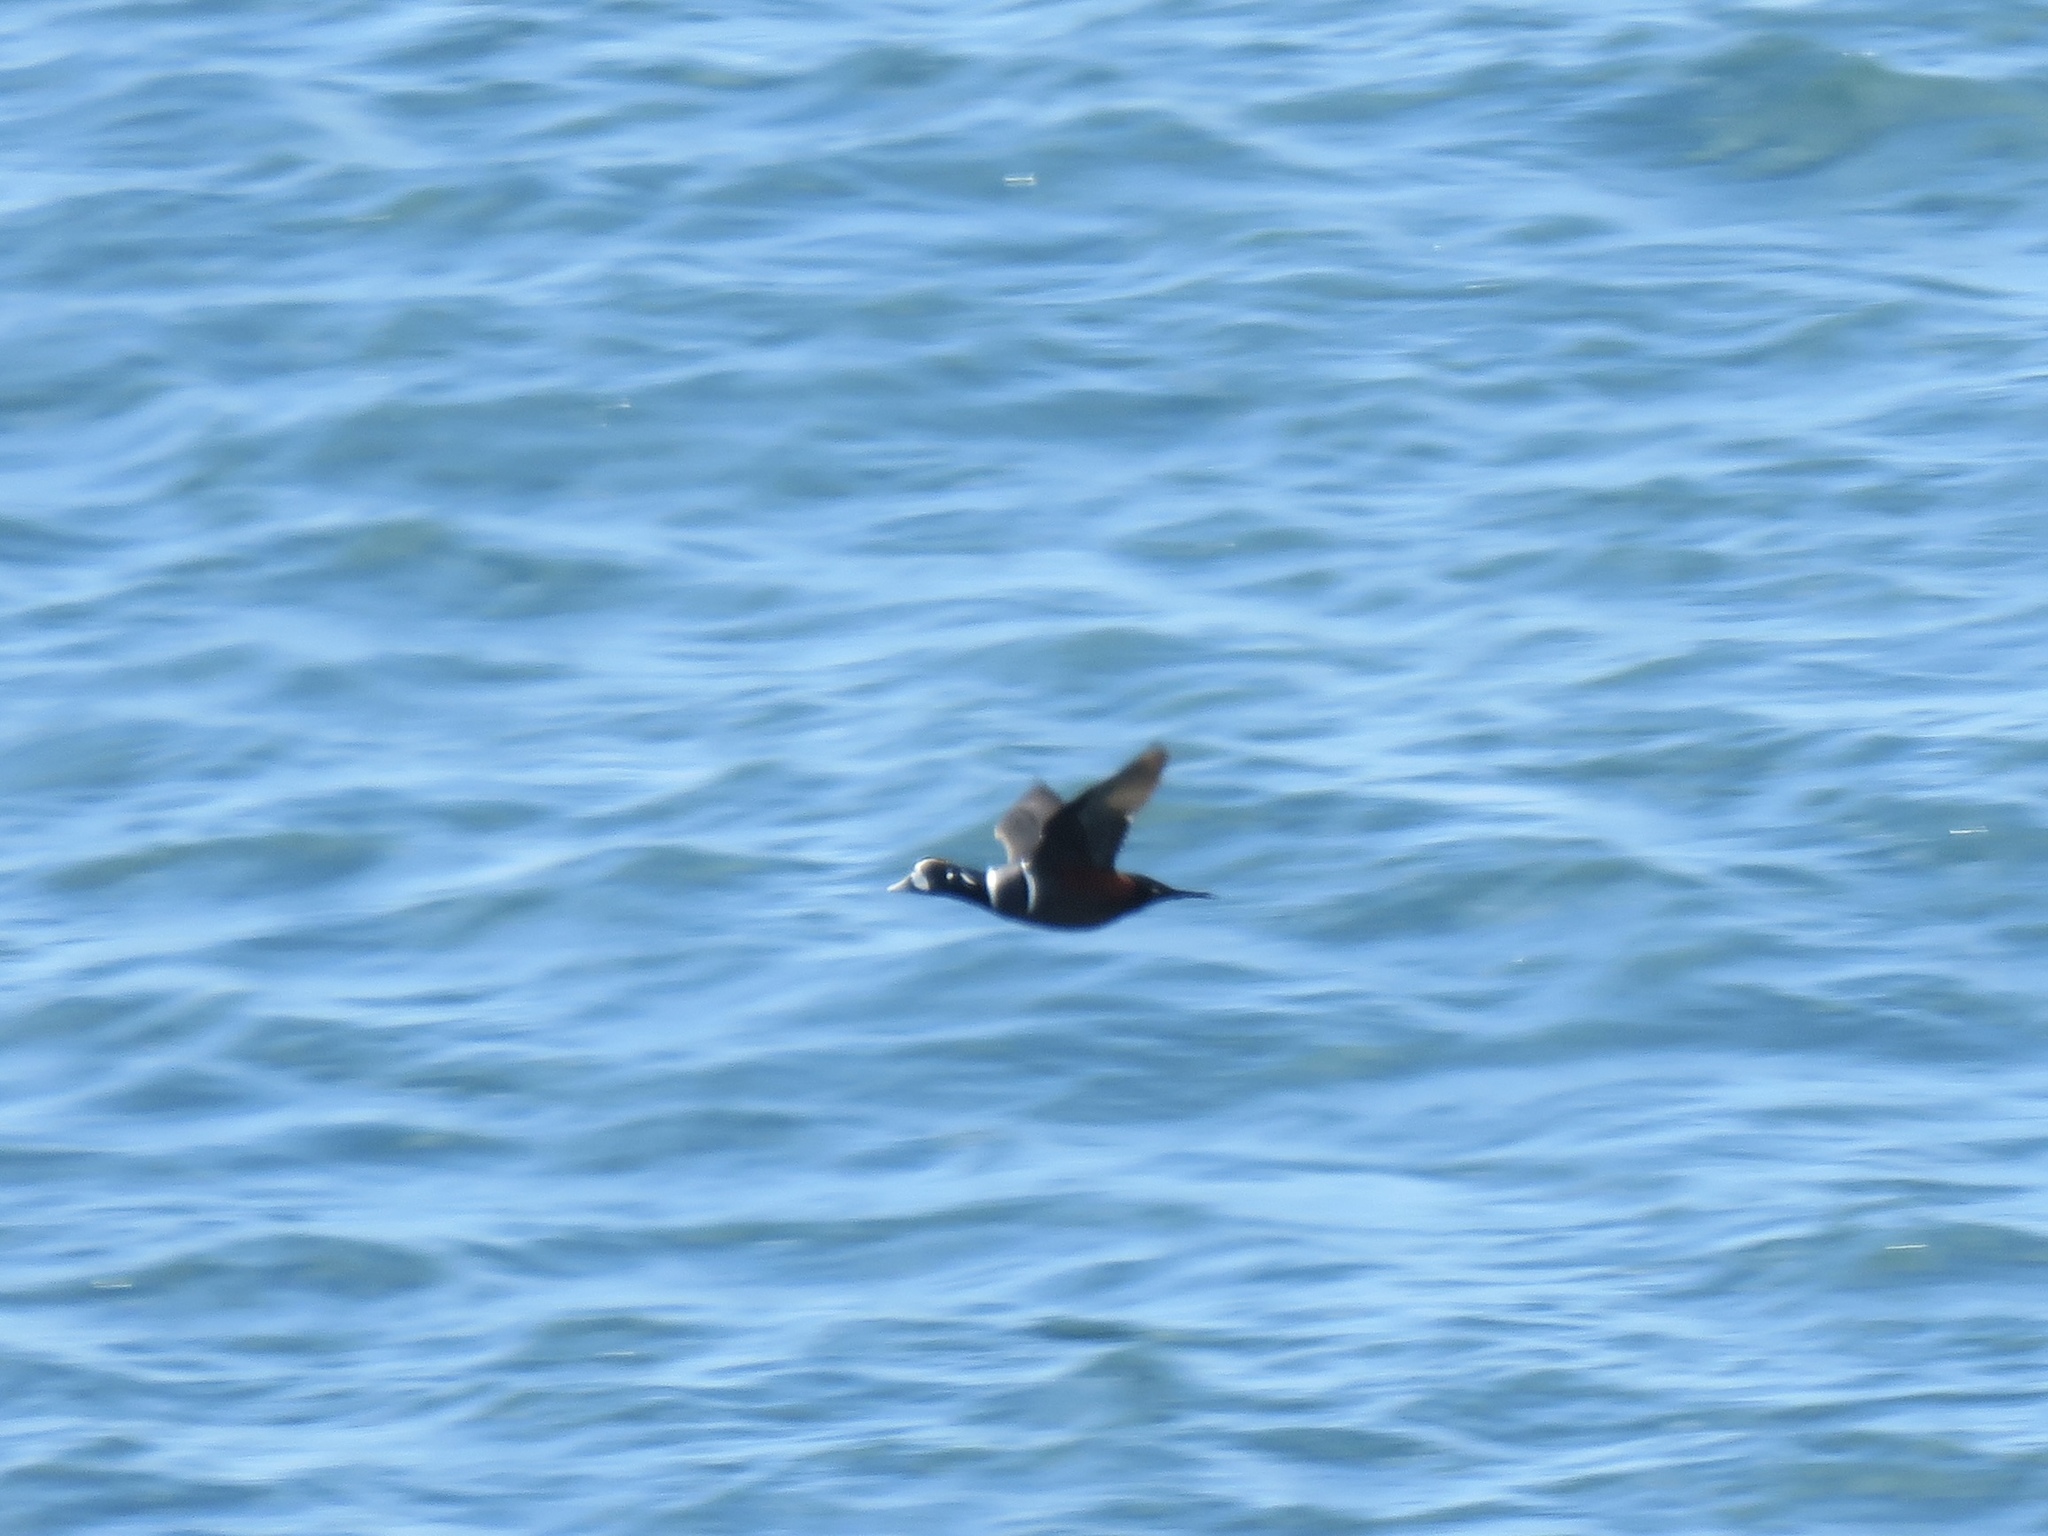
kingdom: Animalia
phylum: Chordata
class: Aves
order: Anseriformes
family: Anatidae
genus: Histrionicus
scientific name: Histrionicus histrionicus
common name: Harlequin duck
